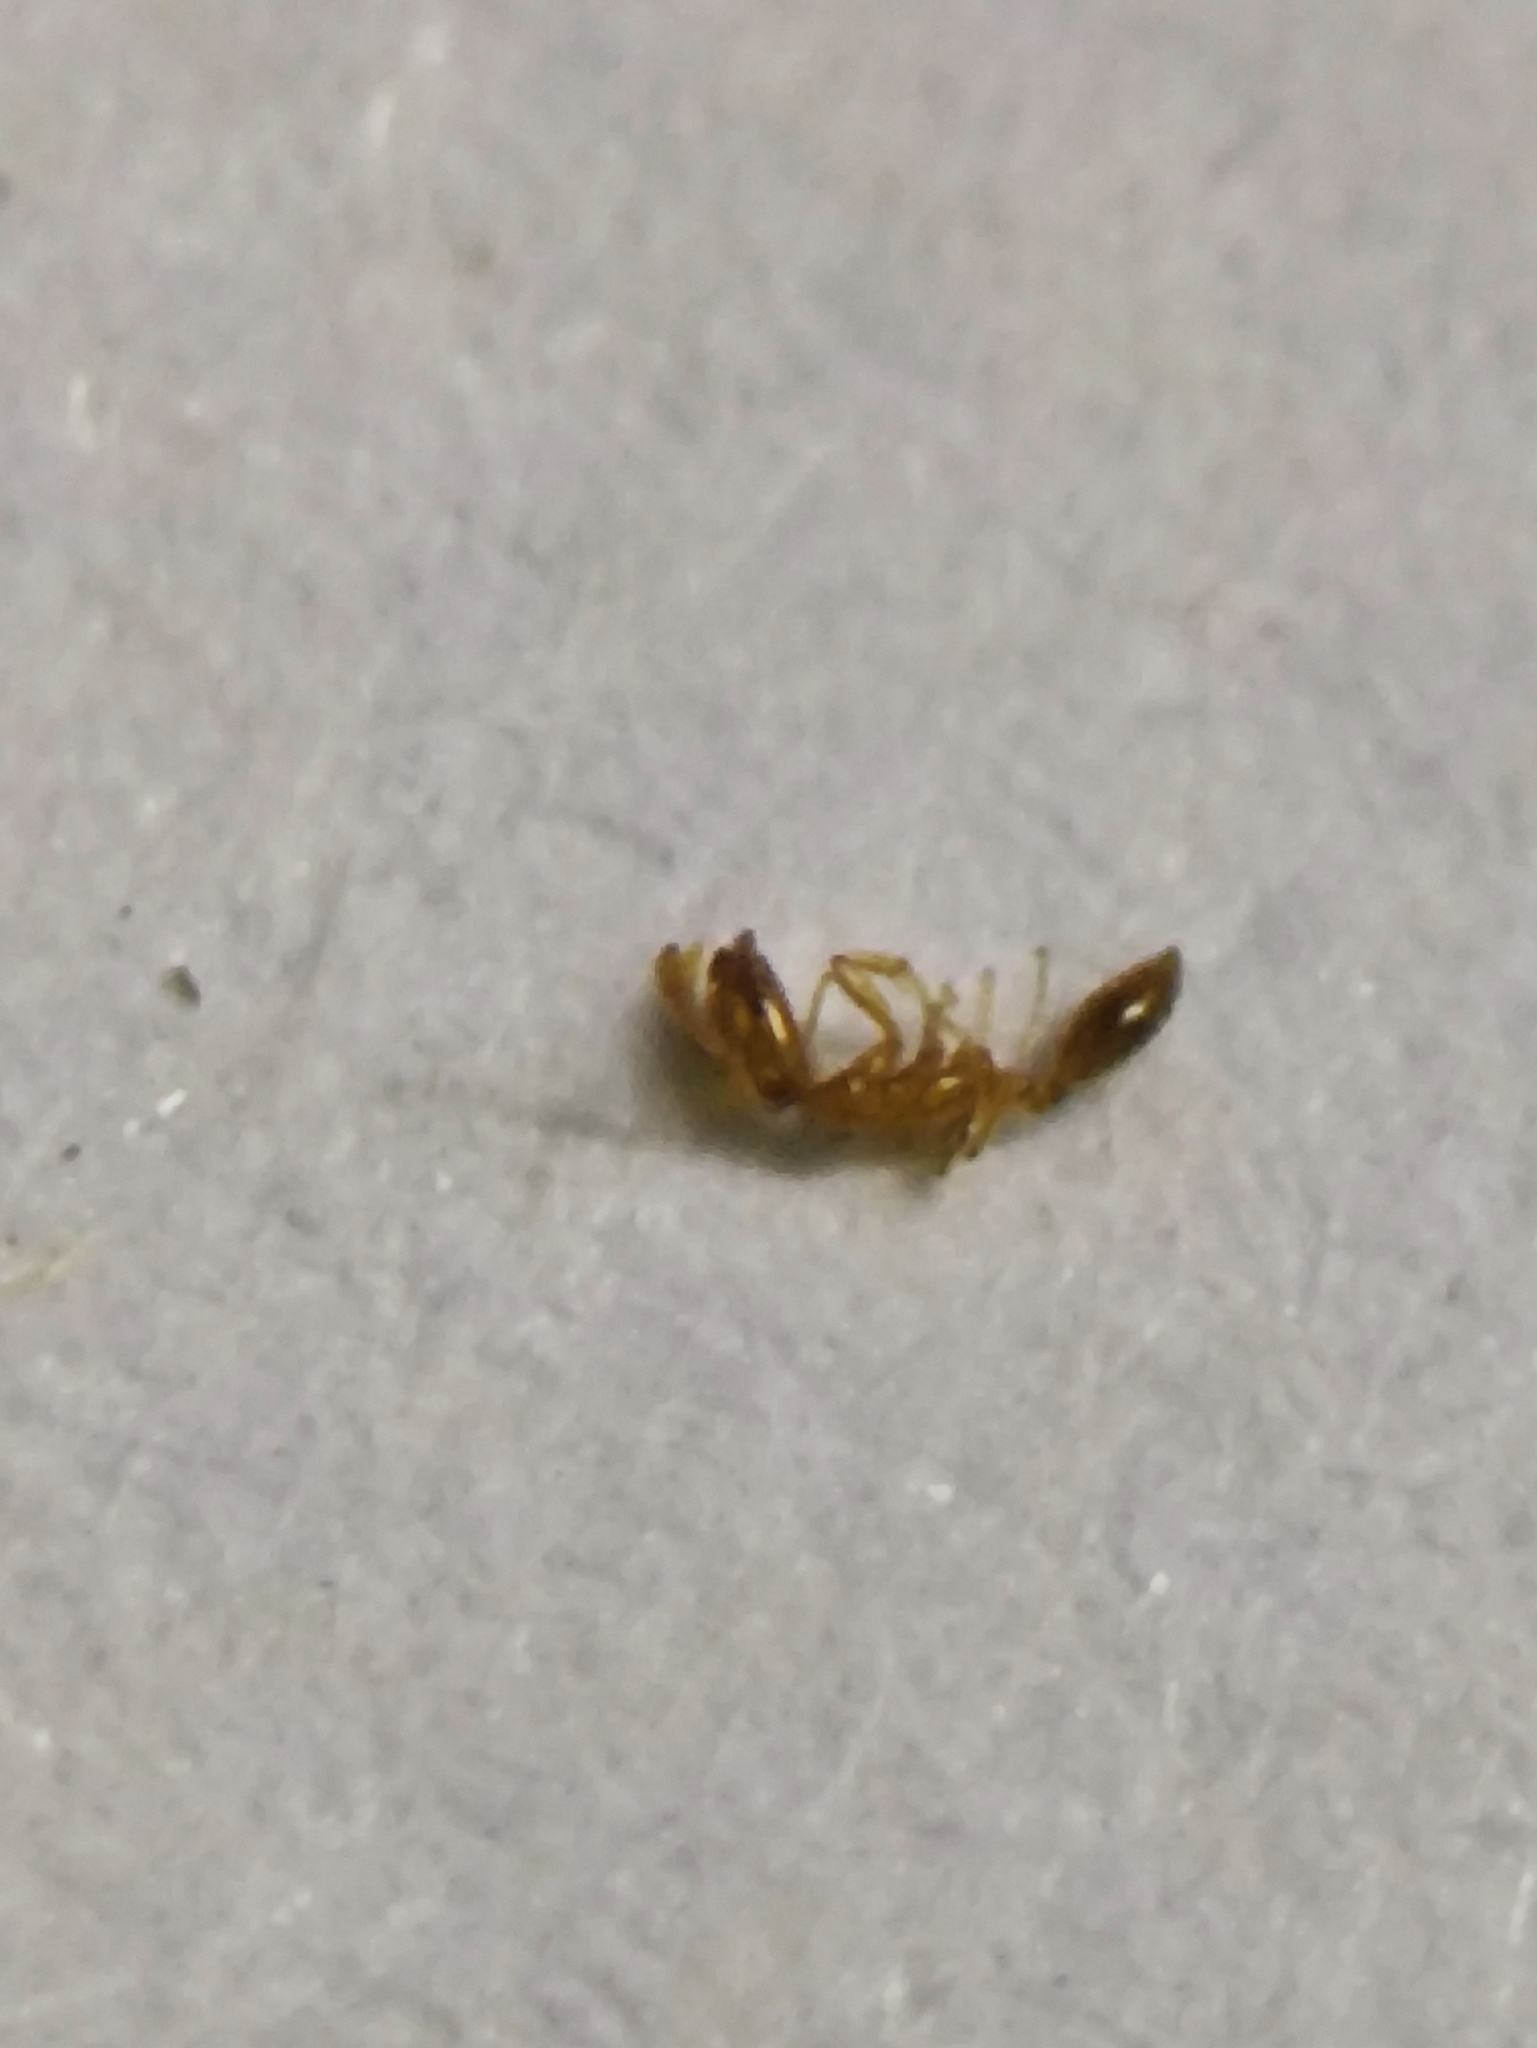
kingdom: Animalia
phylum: Arthropoda
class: Insecta
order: Hymenoptera
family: Formicidae
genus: Monomorium
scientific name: Monomorium atomum
